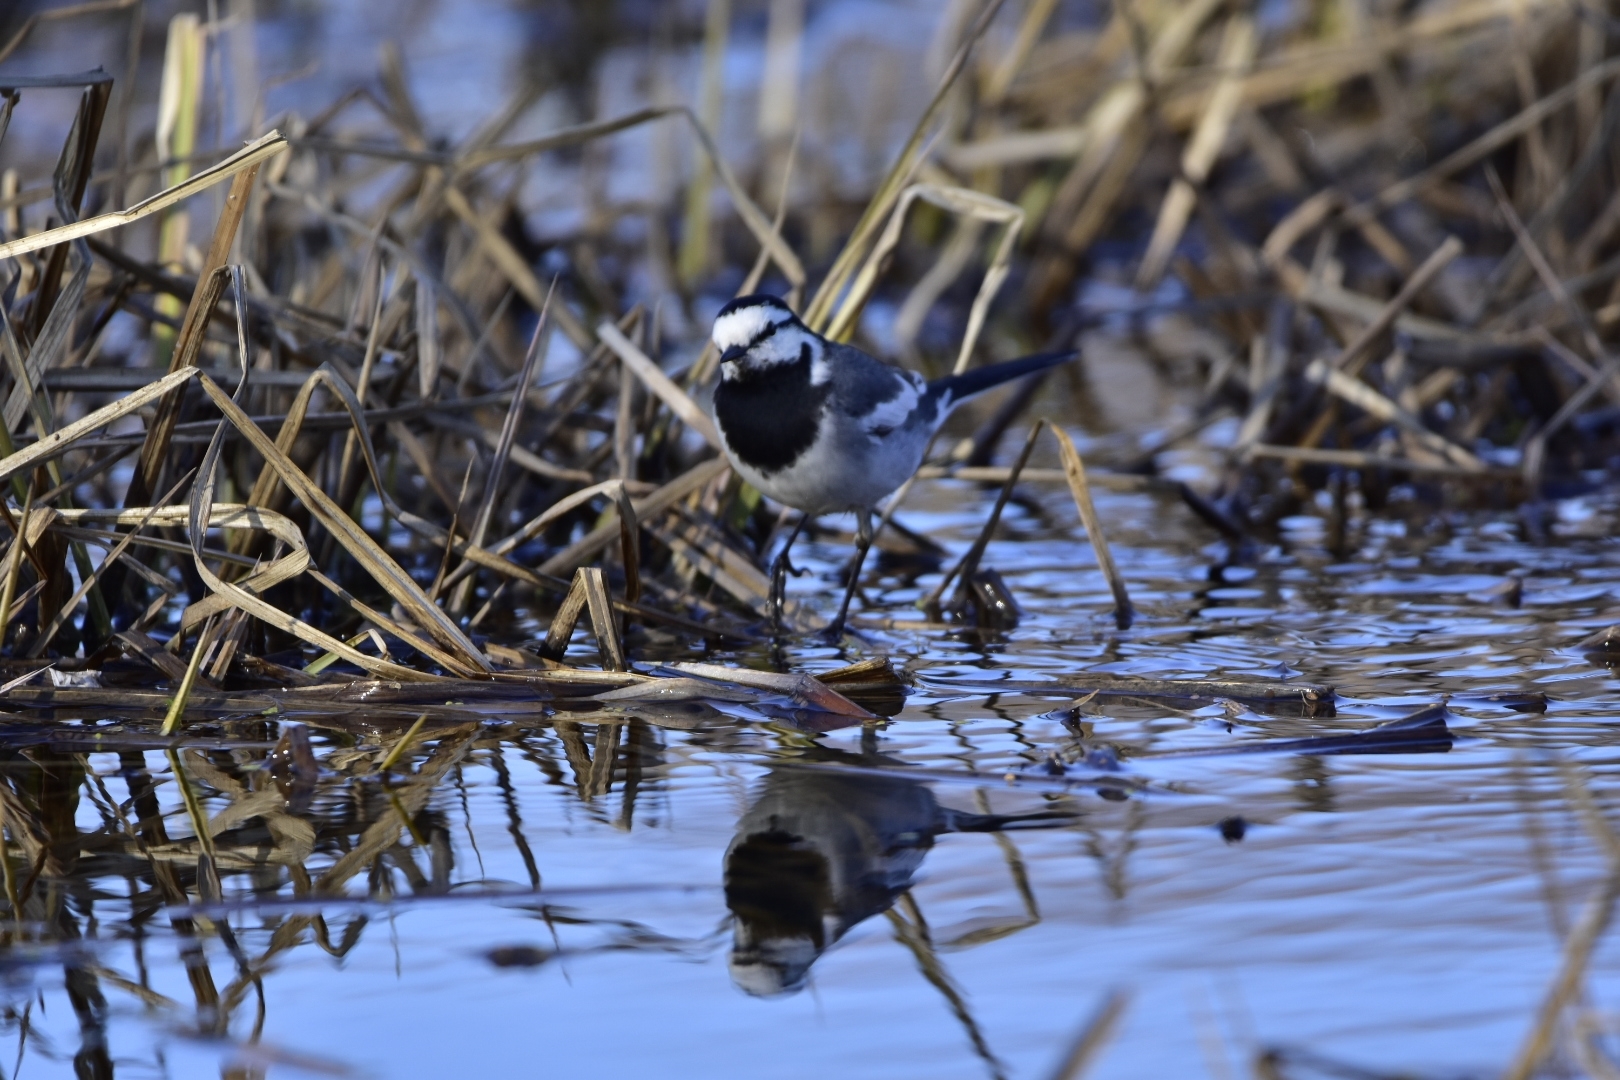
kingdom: Animalia
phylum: Chordata
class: Aves
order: Passeriformes
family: Motacillidae
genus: Motacilla
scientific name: Motacilla alba
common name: White wagtail
